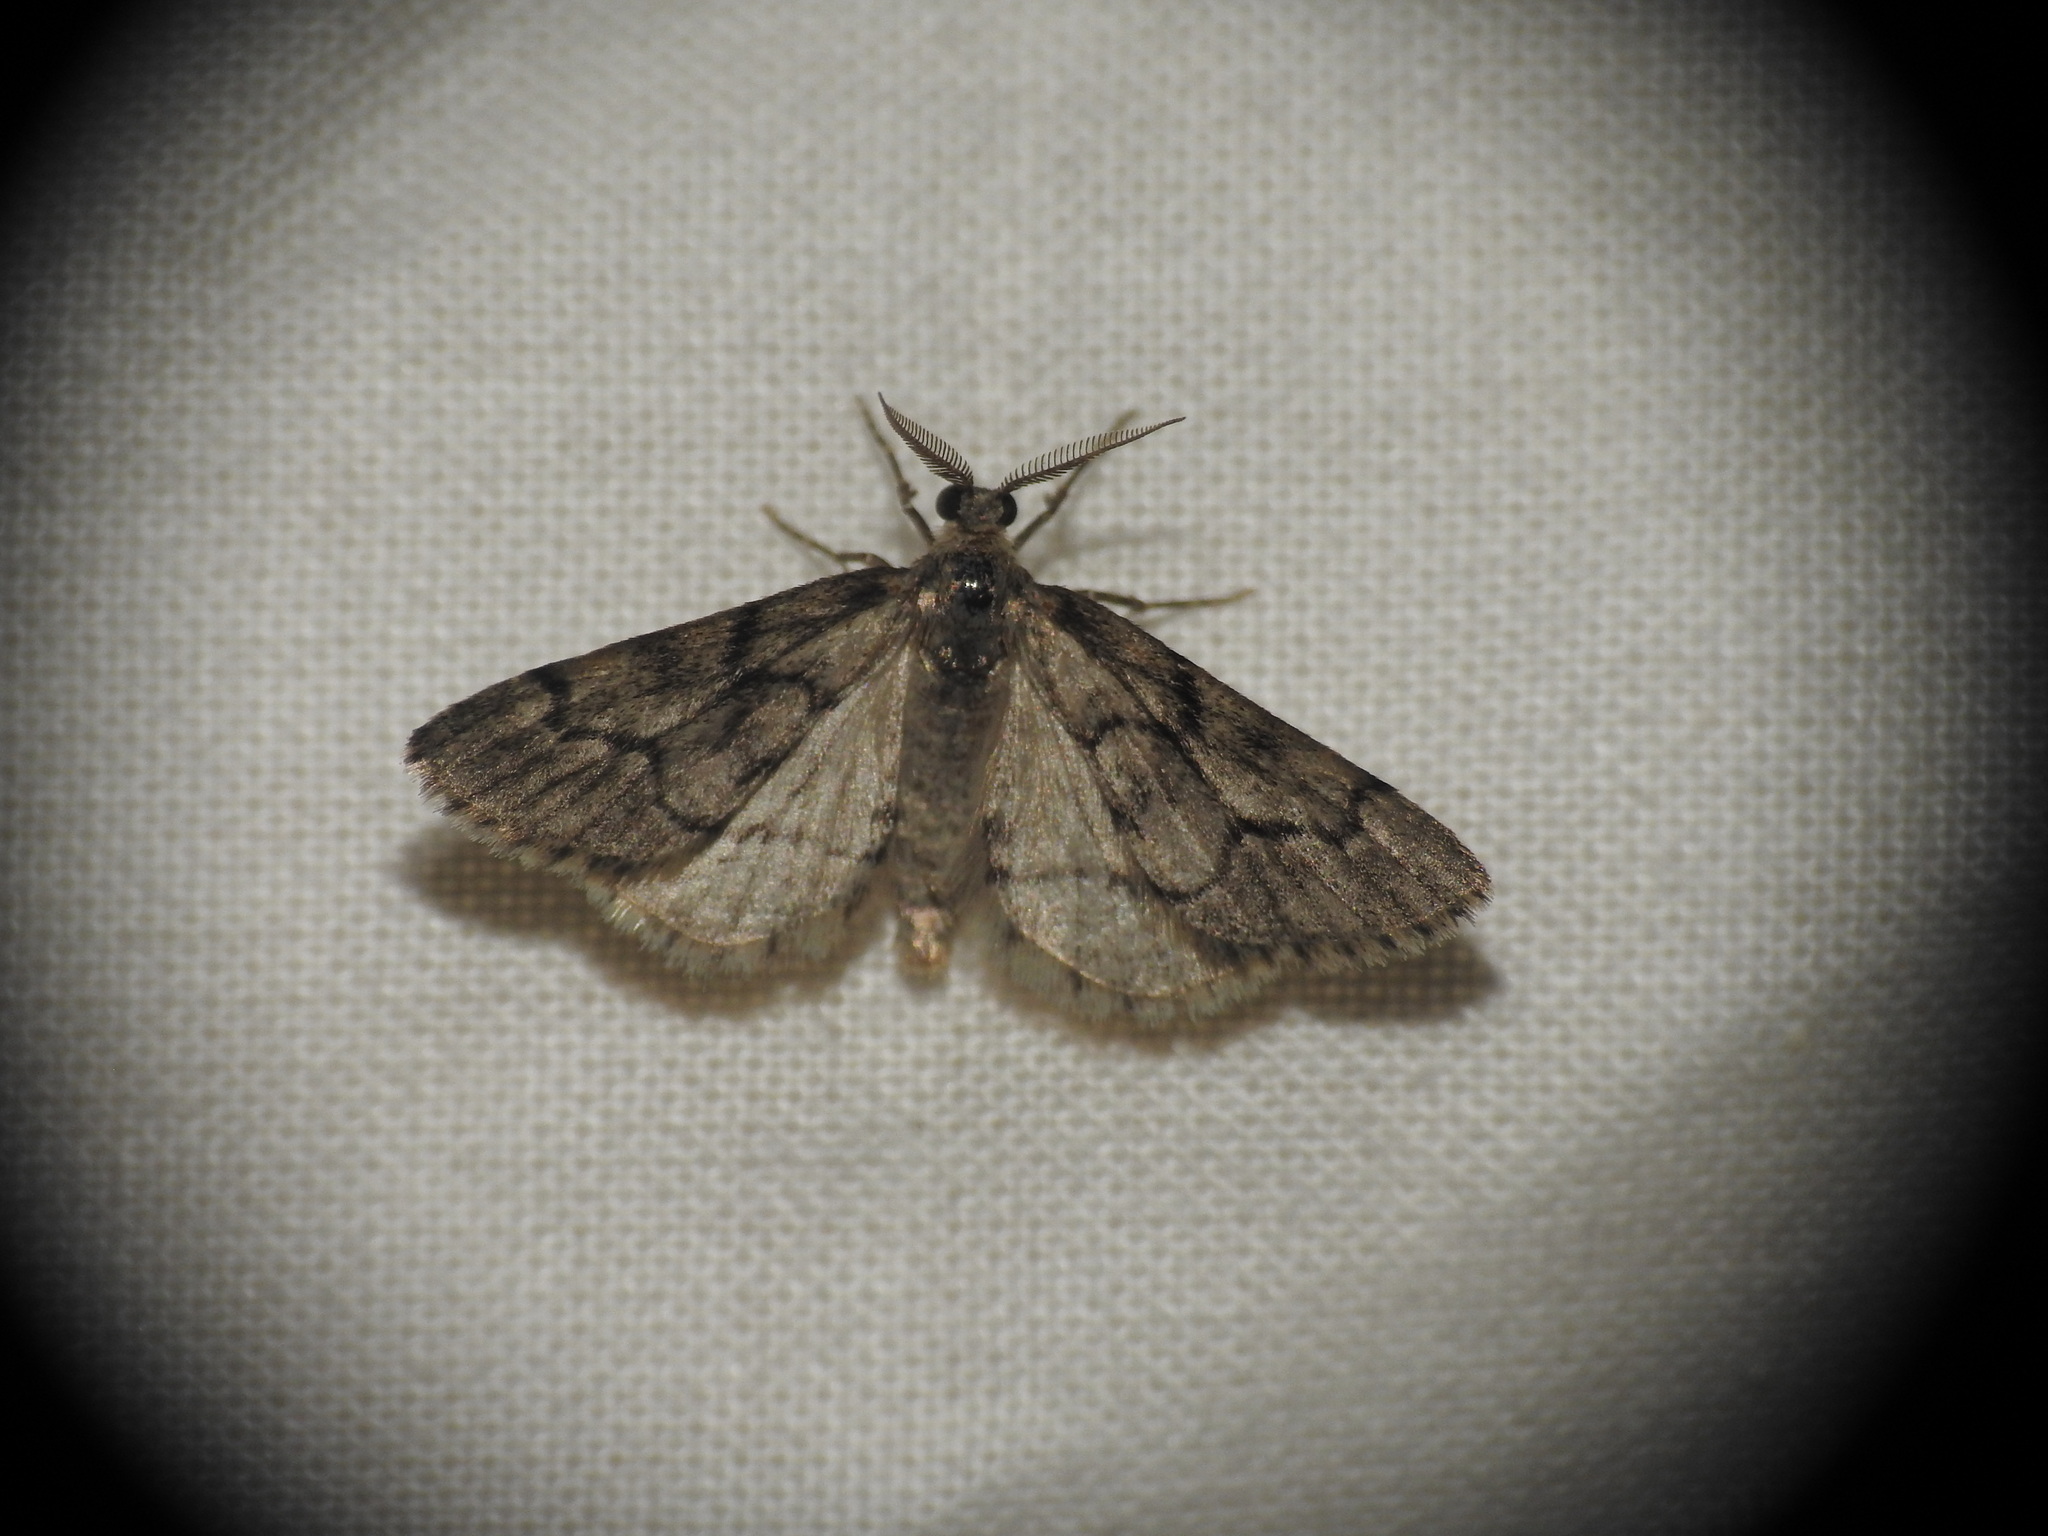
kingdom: Animalia
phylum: Arthropoda
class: Insecta
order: Lepidoptera
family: Geometridae
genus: Tephronia
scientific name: Tephronia sepiaria
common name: Dusky carpet
